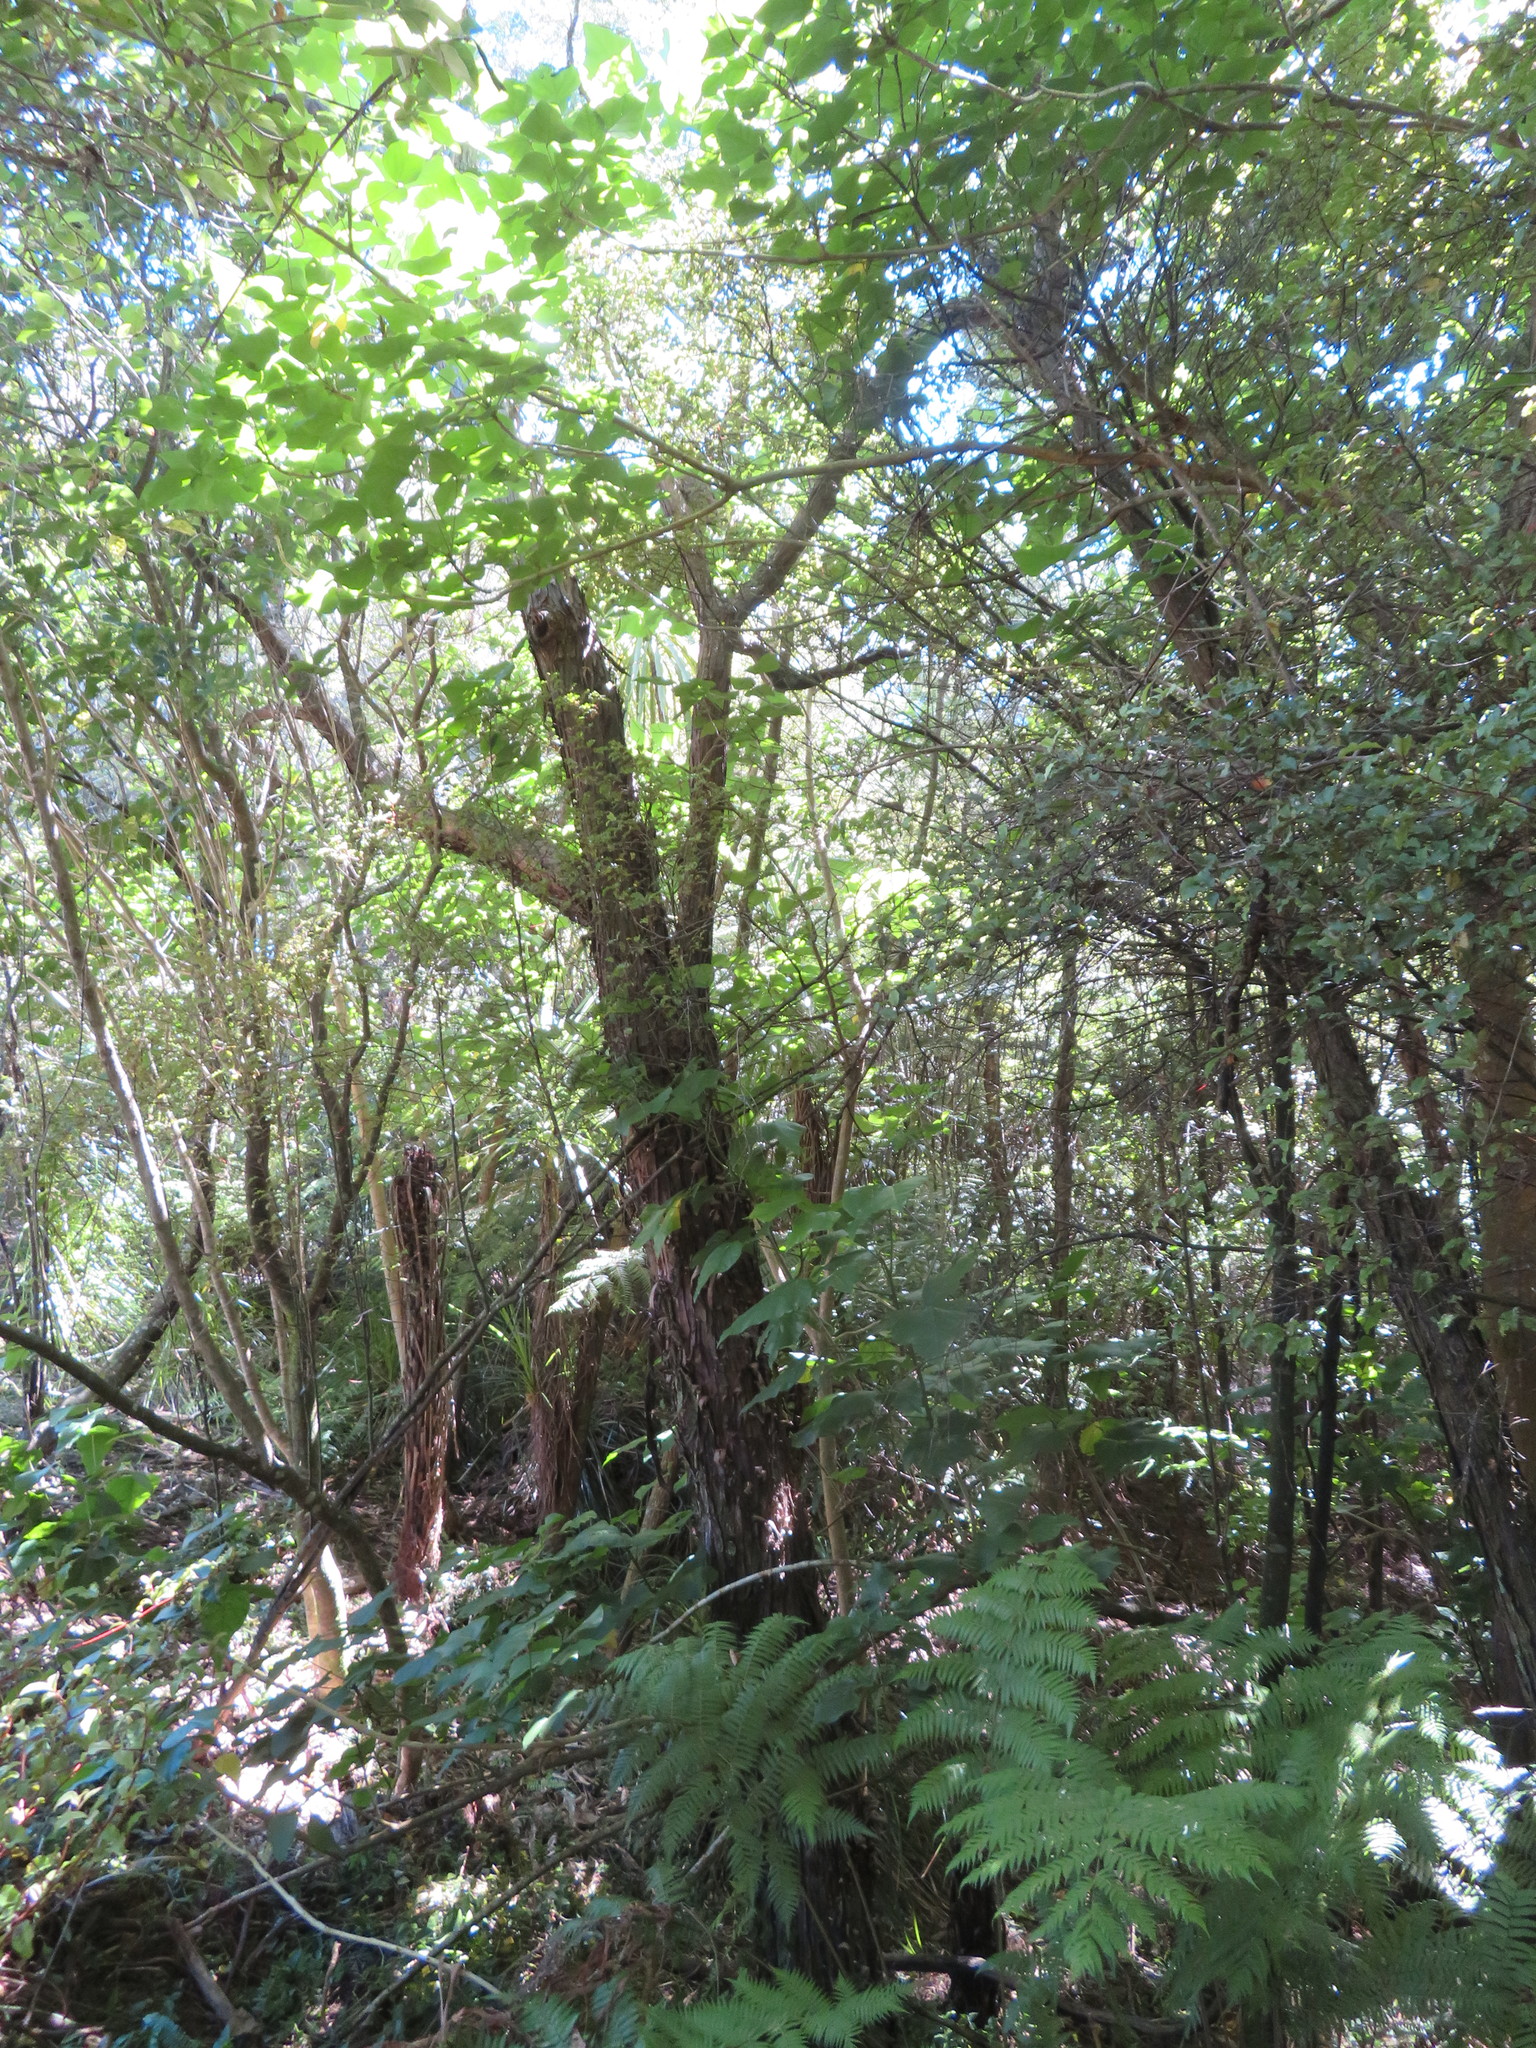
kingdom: Plantae
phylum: Tracheophyta
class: Magnoliopsida
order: Ericales
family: Primulaceae
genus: Myrsine
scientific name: Myrsine australis
